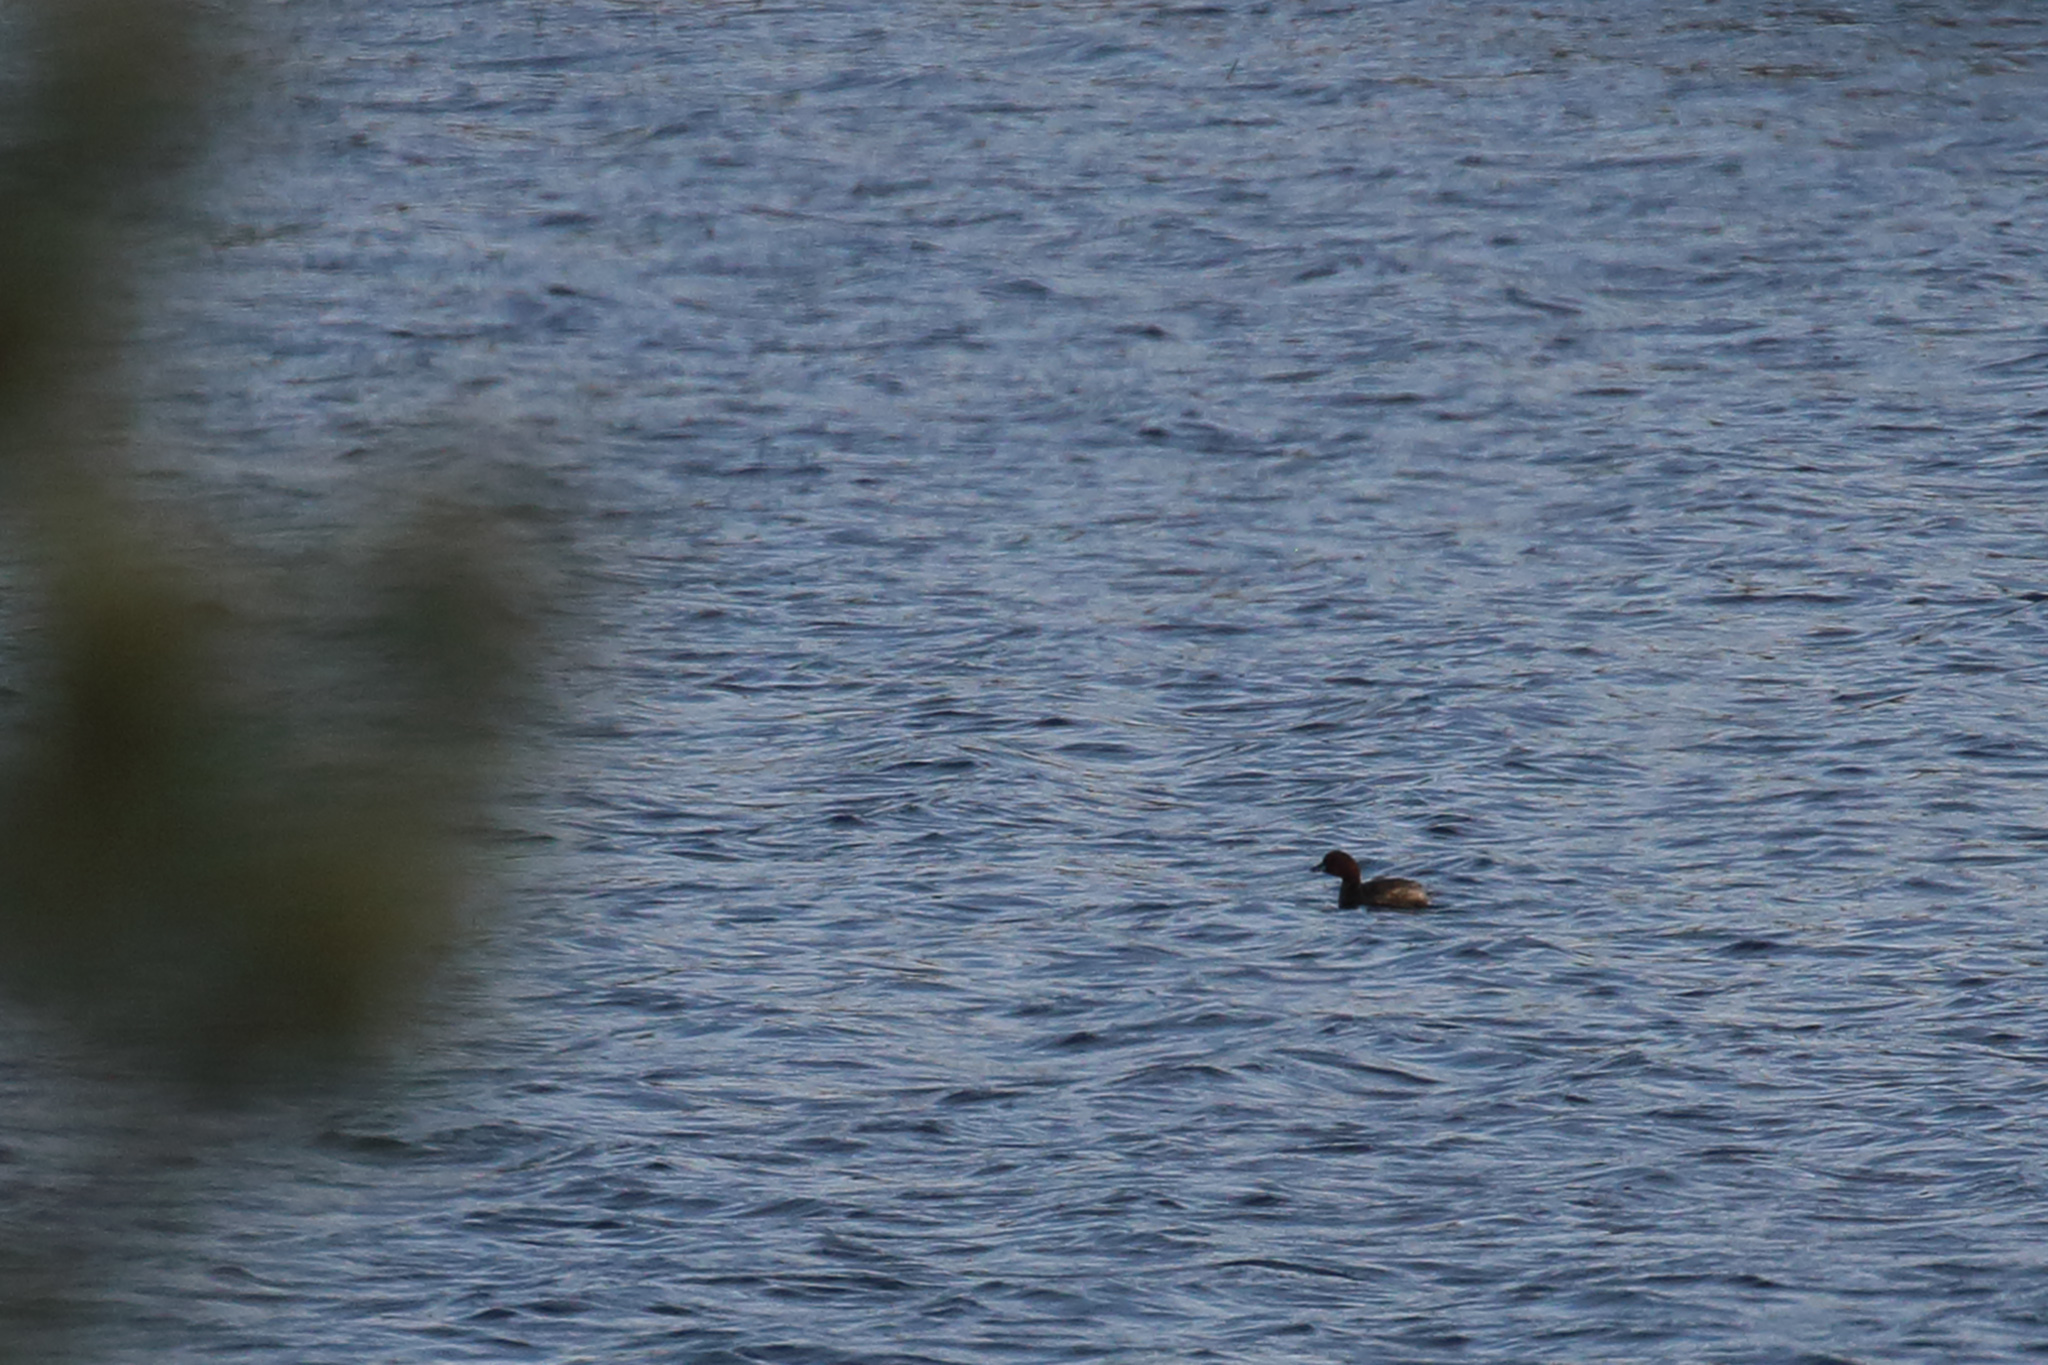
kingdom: Animalia
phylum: Chordata
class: Aves
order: Podicipediformes
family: Podicipedidae
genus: Tachybaptus
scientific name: Tachybaptus ruficollis
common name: Little grebe
